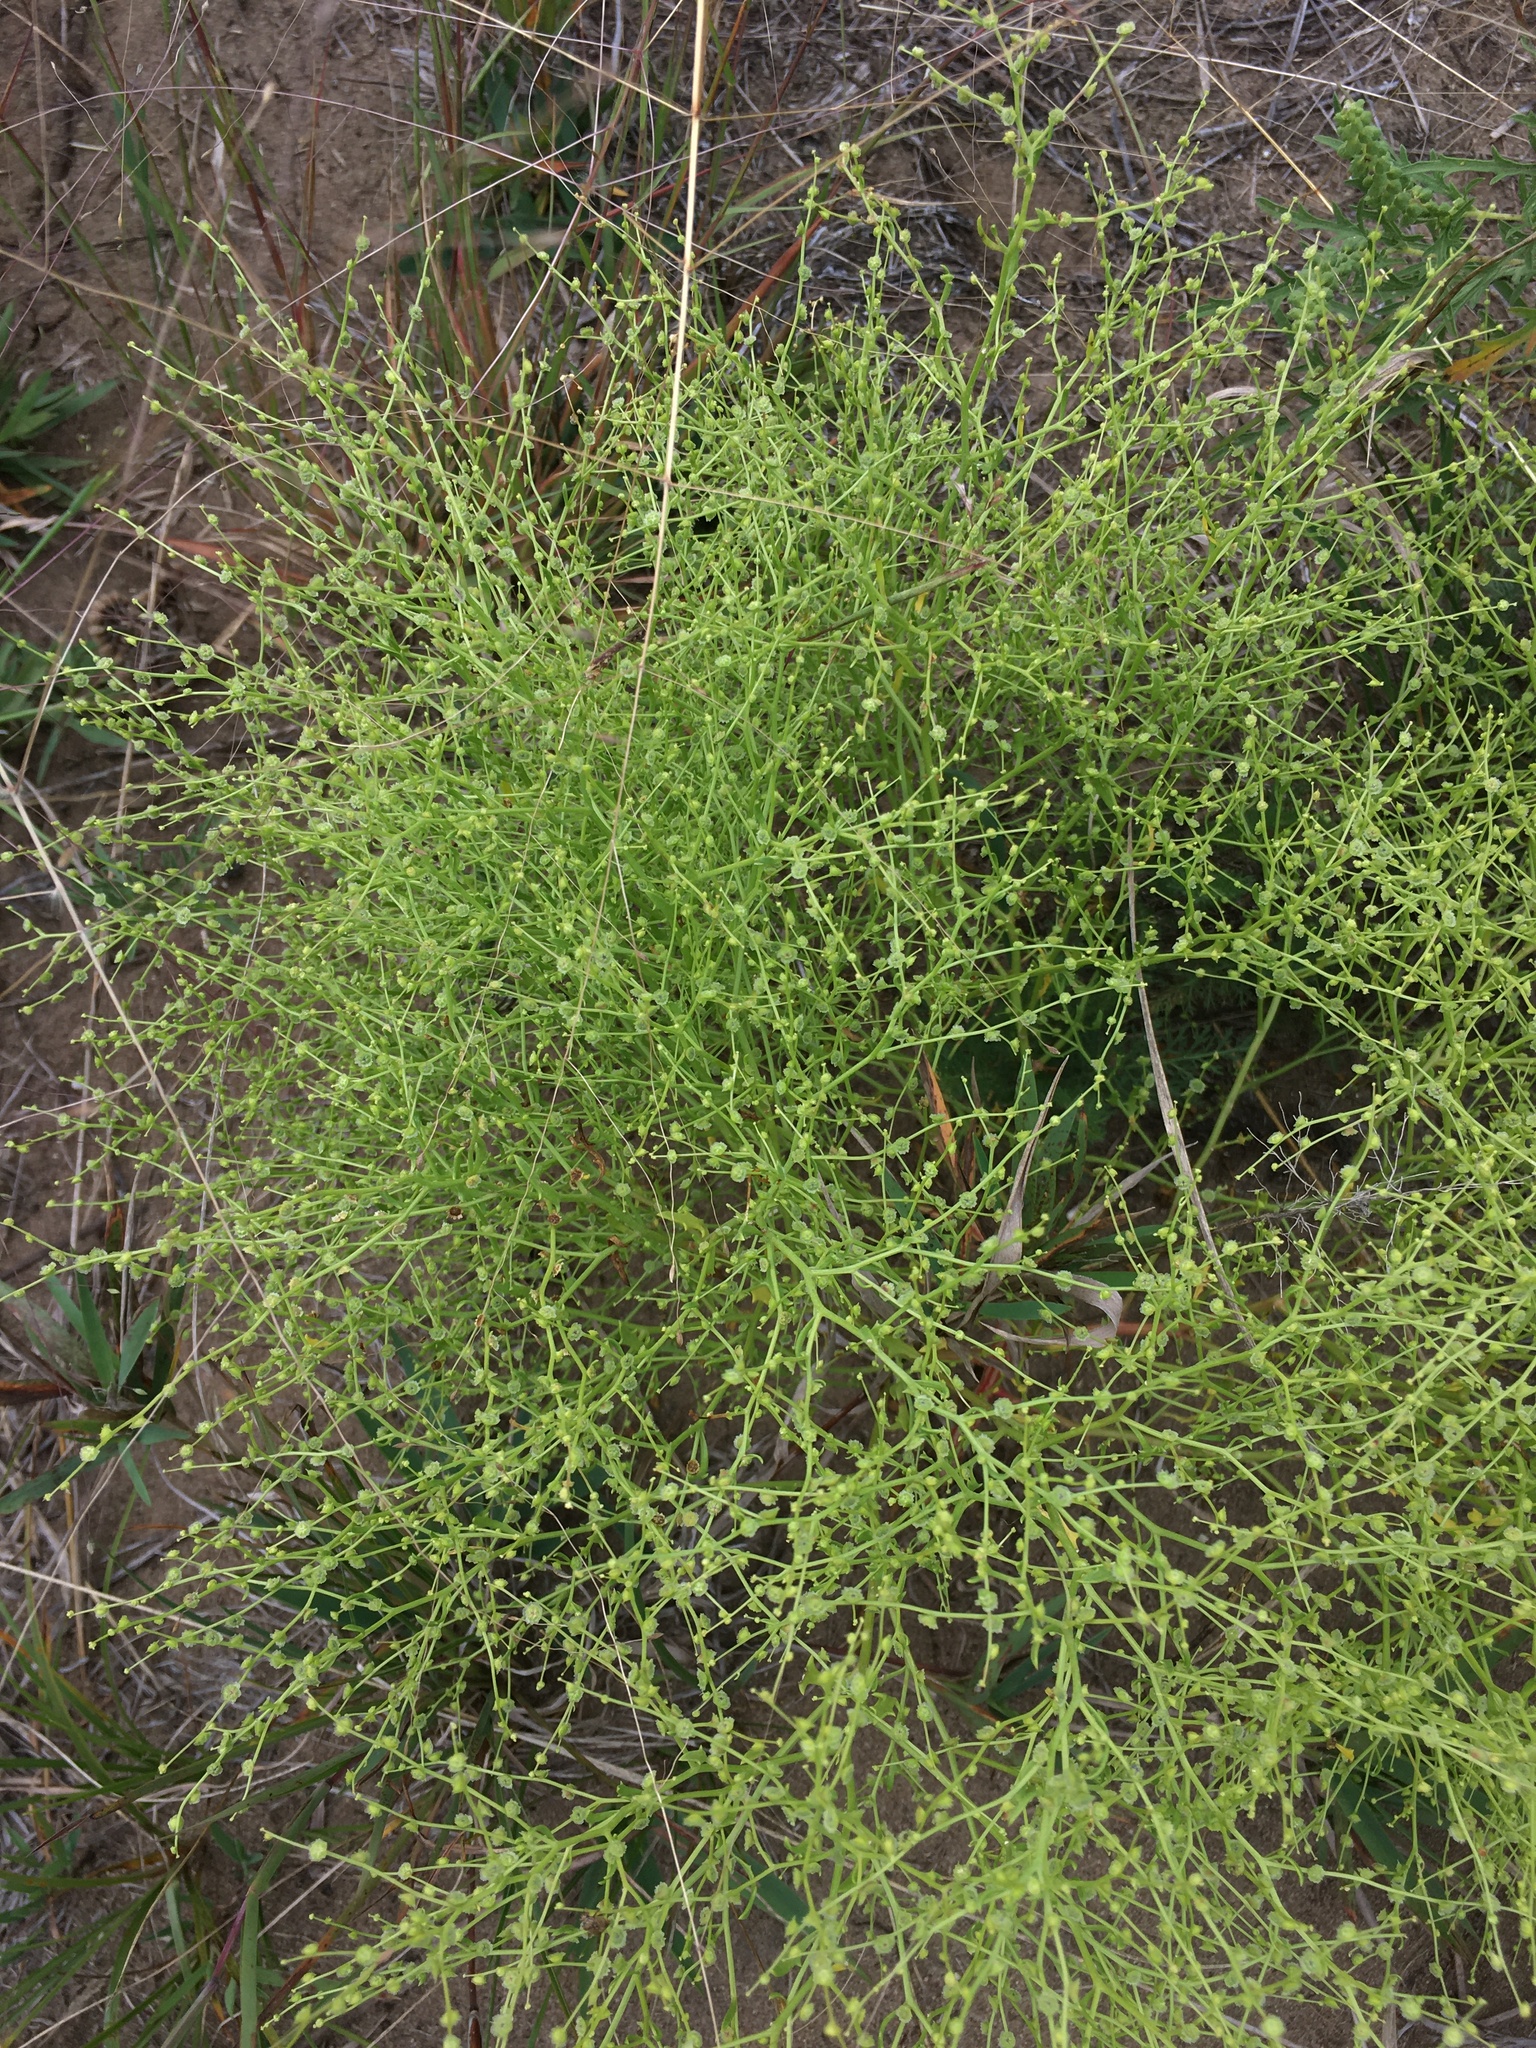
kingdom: Plantae
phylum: Tracheophyta
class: Magnoliopsida
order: Caryophyllales
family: Amaranthaceae
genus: Dysphania
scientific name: Dysphania atriplicifolia
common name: Plains tumbleweed
